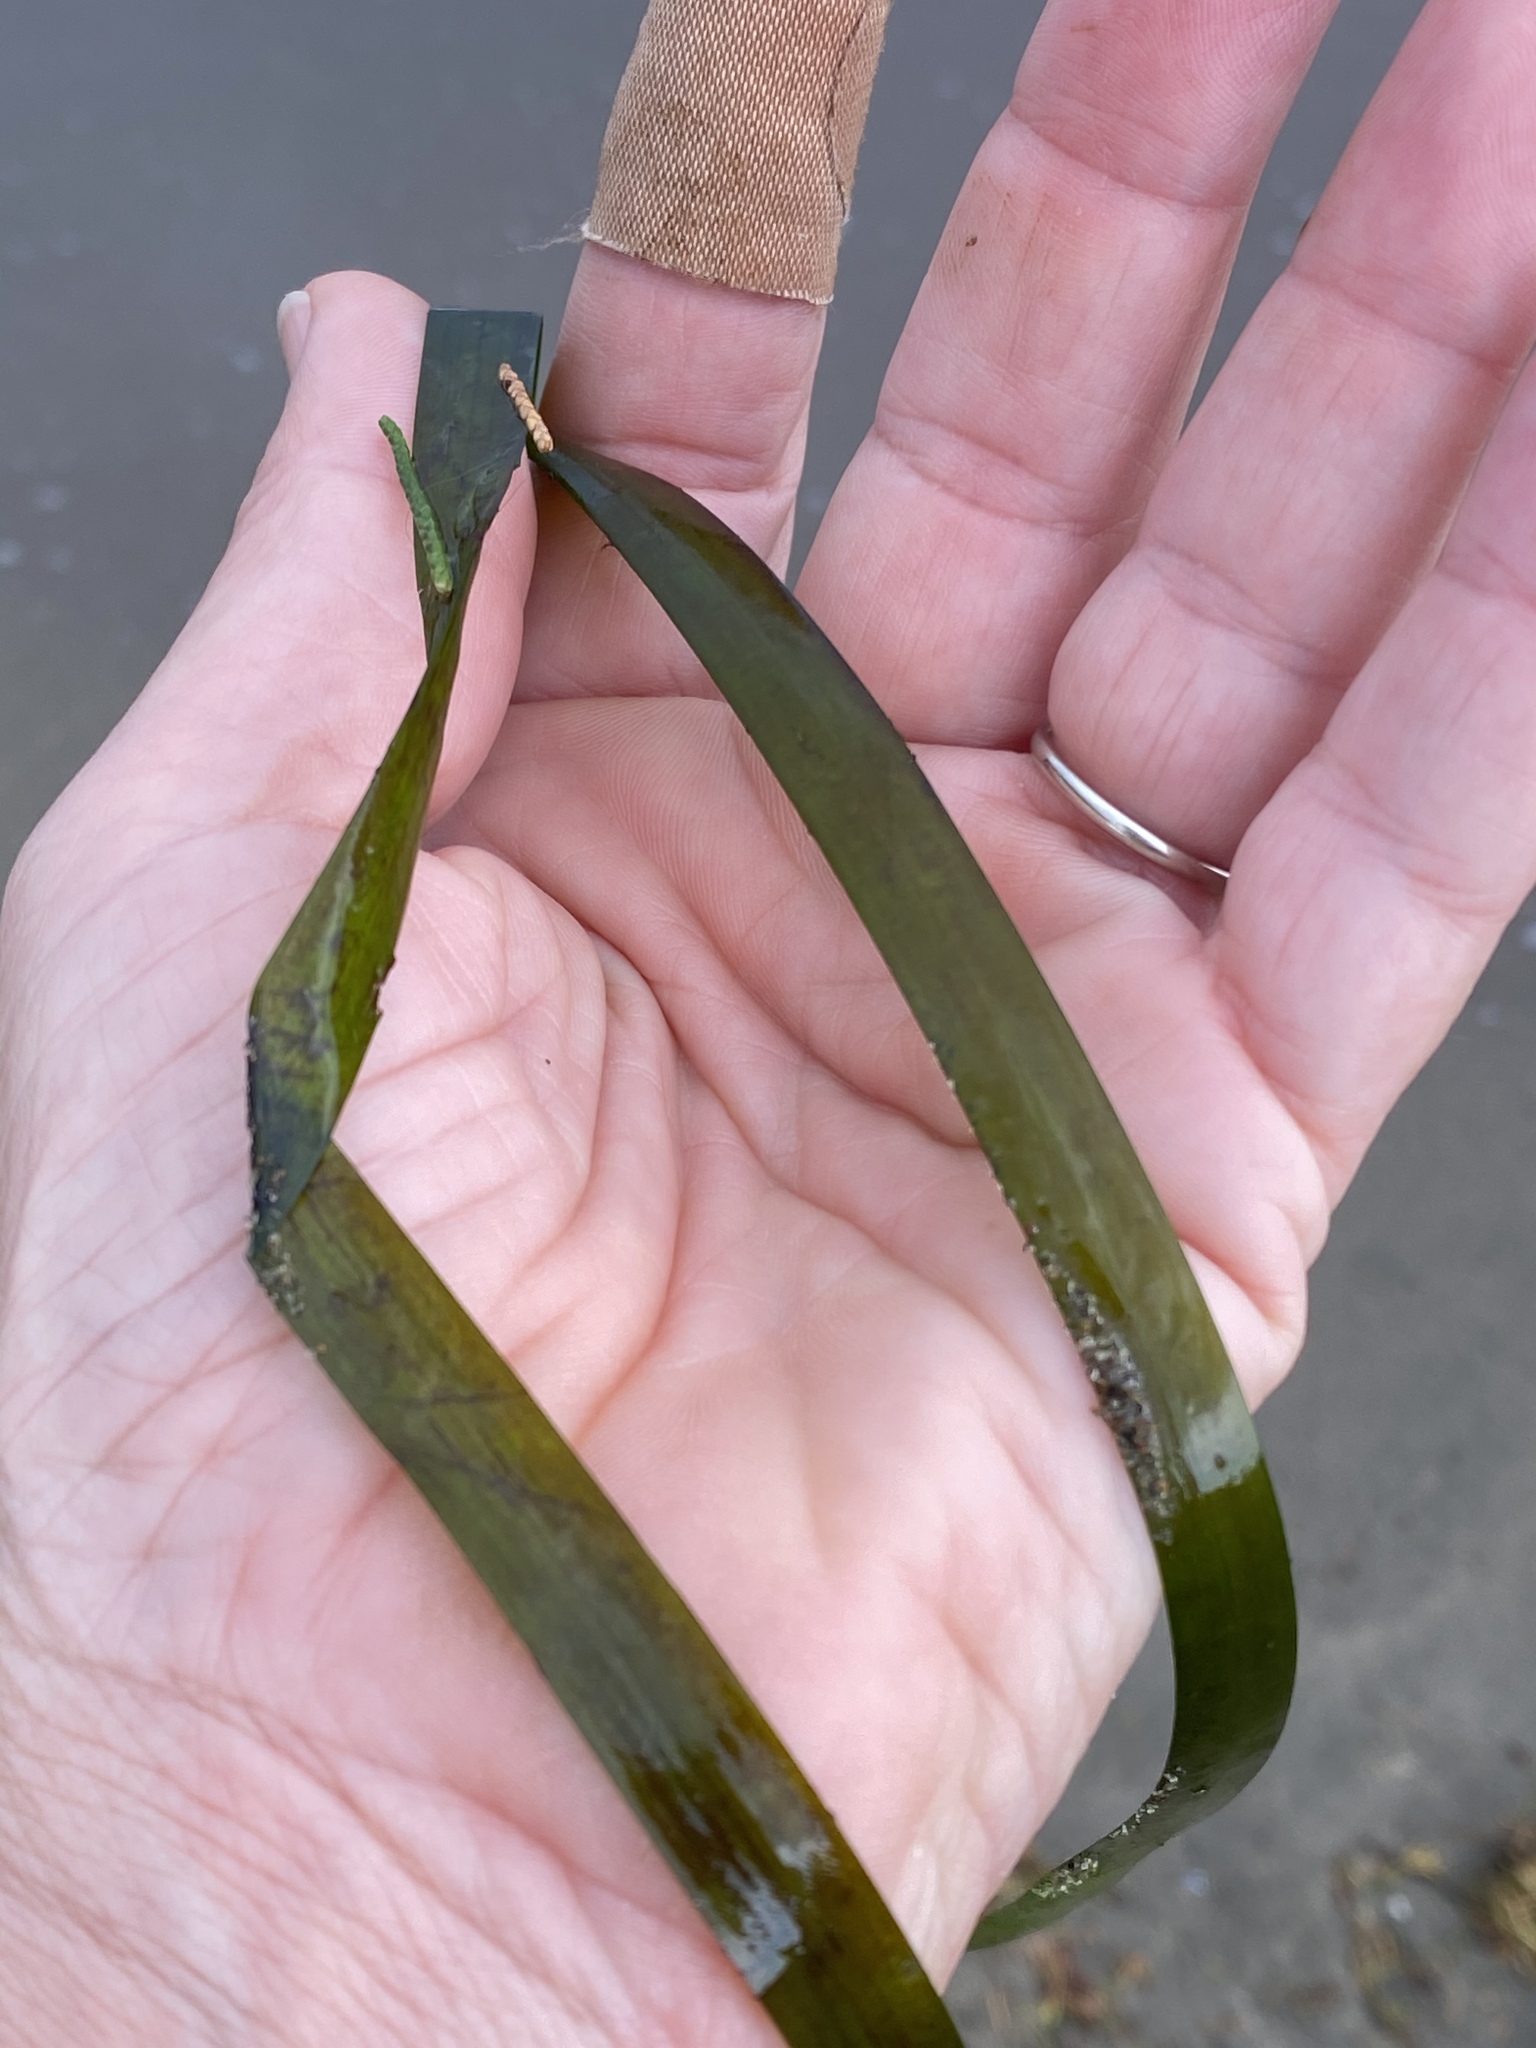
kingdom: Plantae
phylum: Tracheophyta
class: Liliopsida
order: Alismatales
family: Zosteraceae
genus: Zostera
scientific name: Zostera marina
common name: Eelgrass
